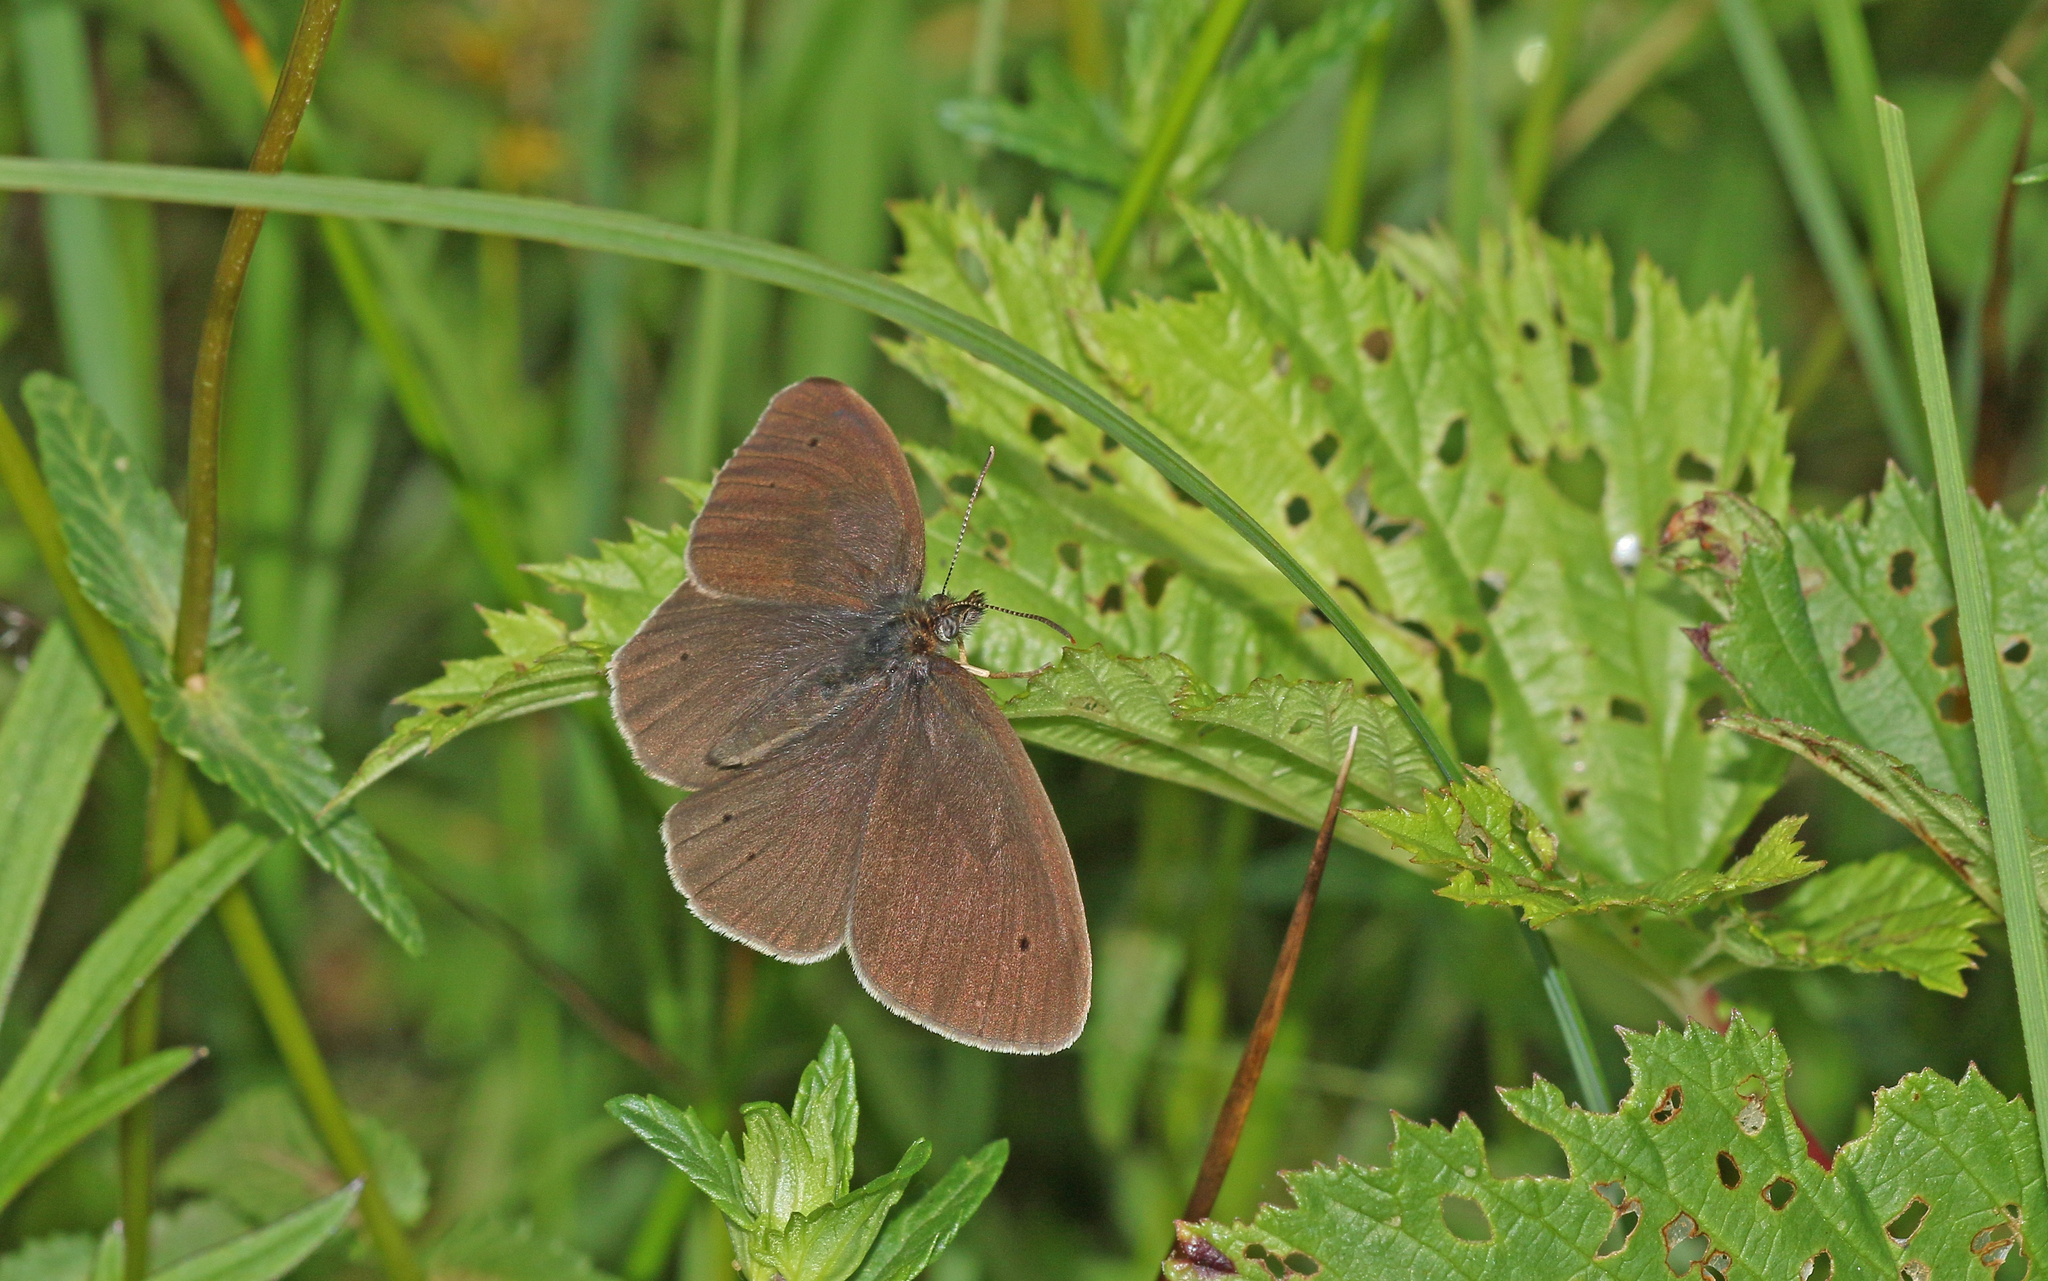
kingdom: Animalia
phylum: Arthropoda
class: Insecta
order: Lepidoptera
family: Nymphalidae
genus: Aphantopus
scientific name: Aphantopus hyperantus
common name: Ringlet
